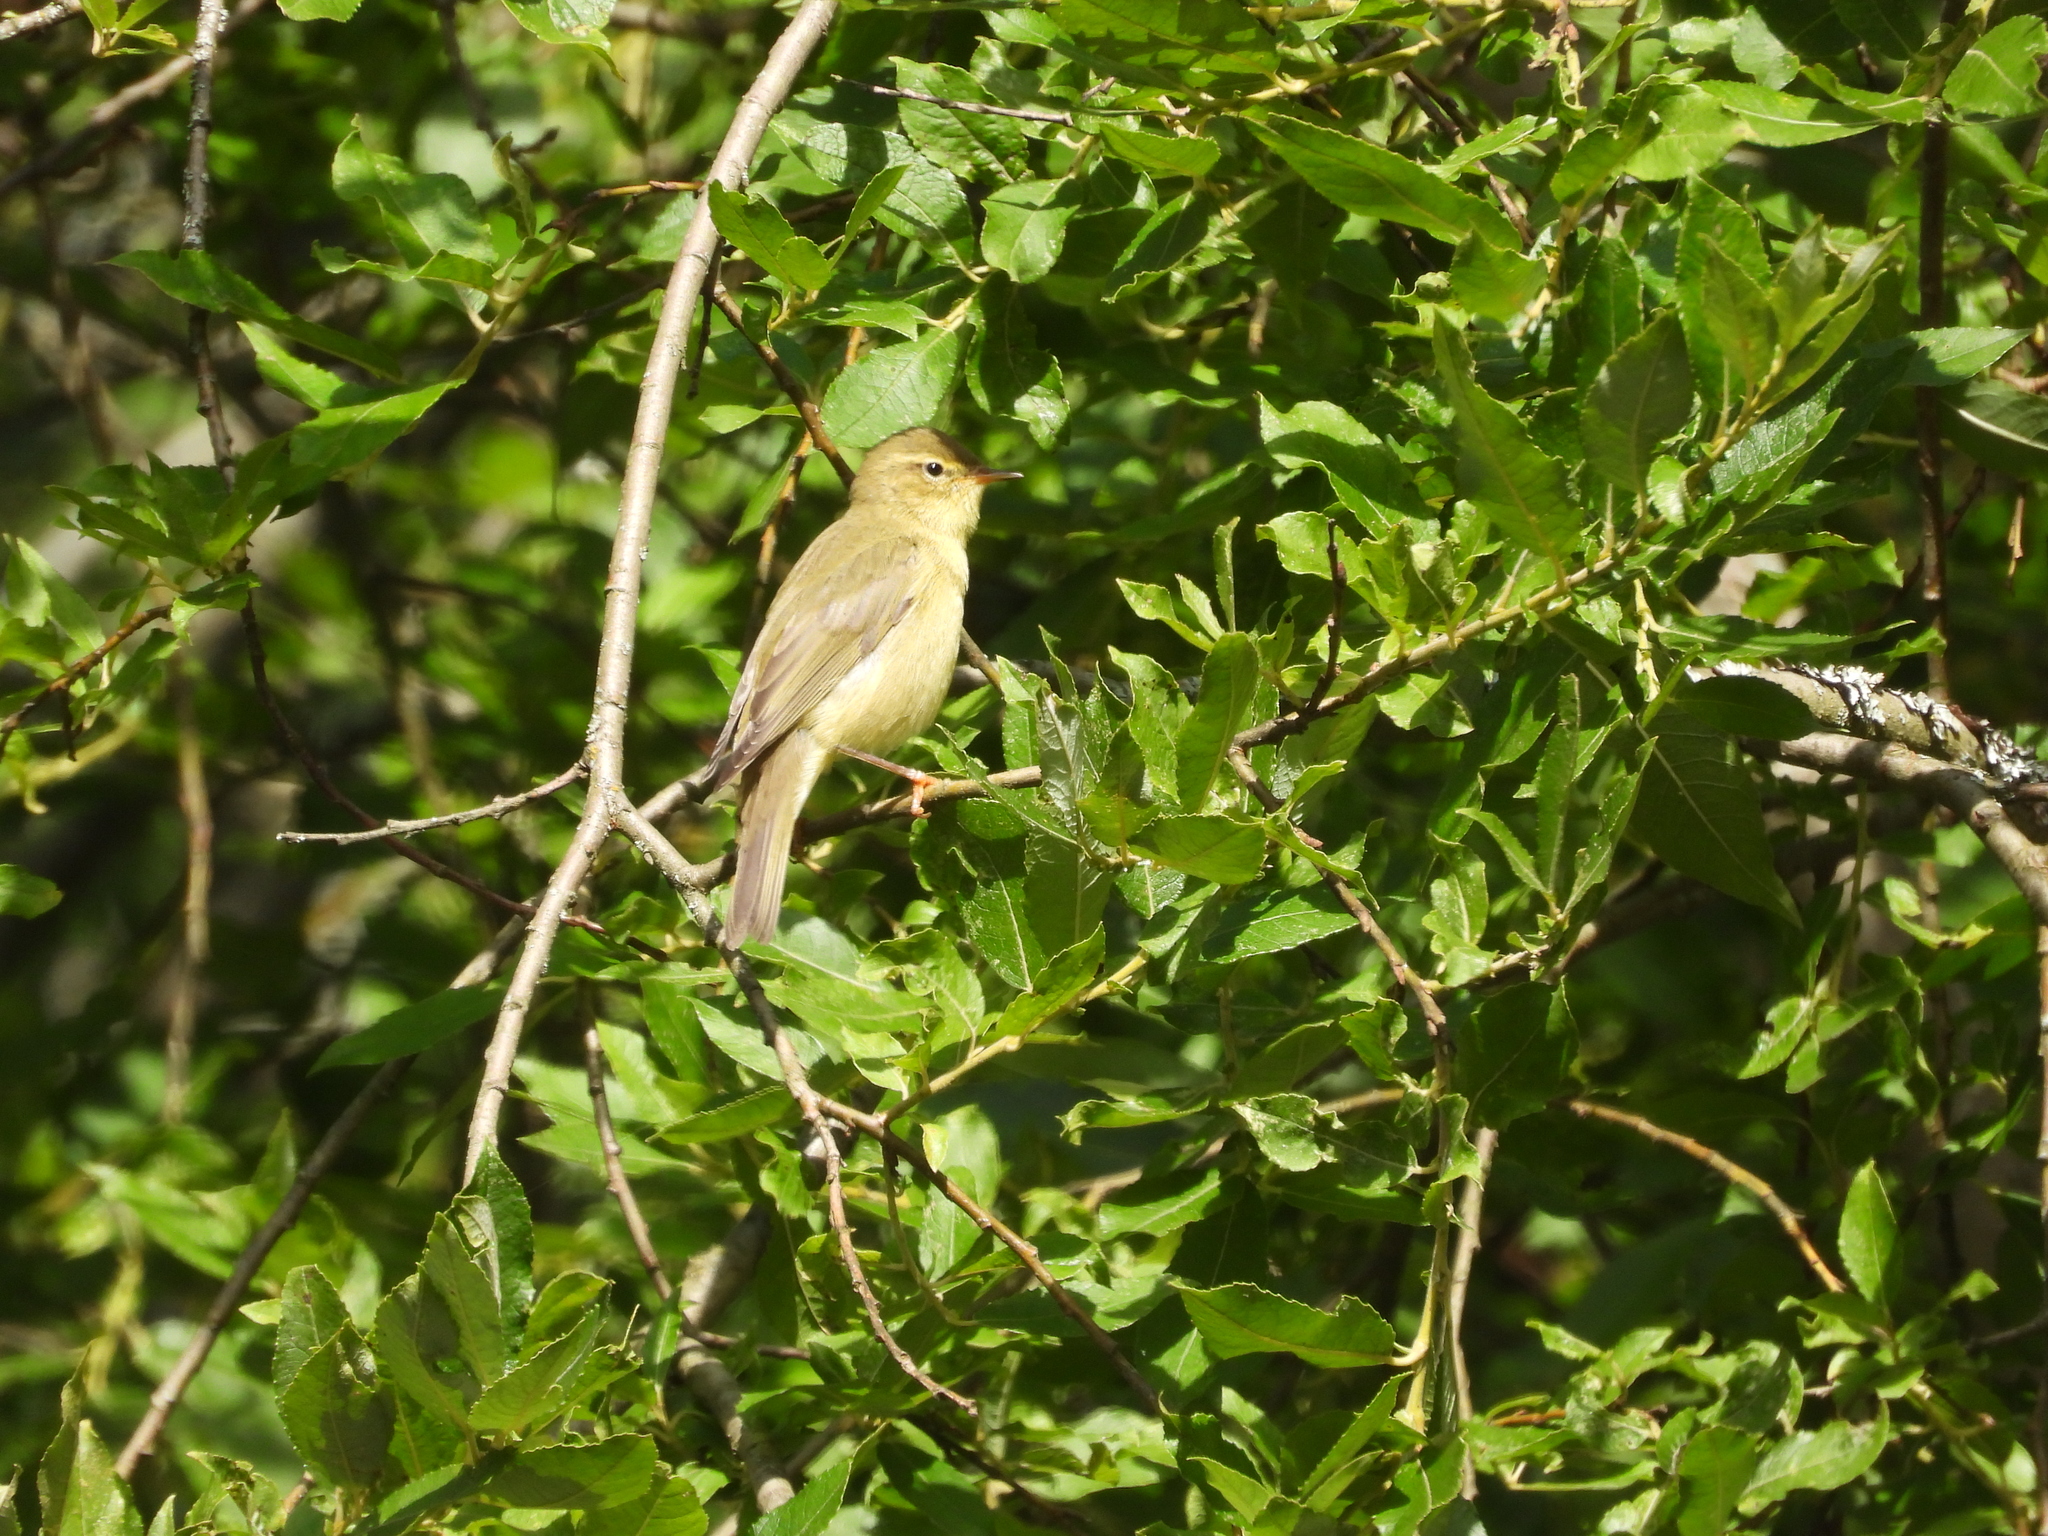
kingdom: Animalia
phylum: Chordata
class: Aves
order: Passeriformes
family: Phylloscopidae
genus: Phylloscopus
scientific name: Phylloscopus trochilus
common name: Willow warbler
